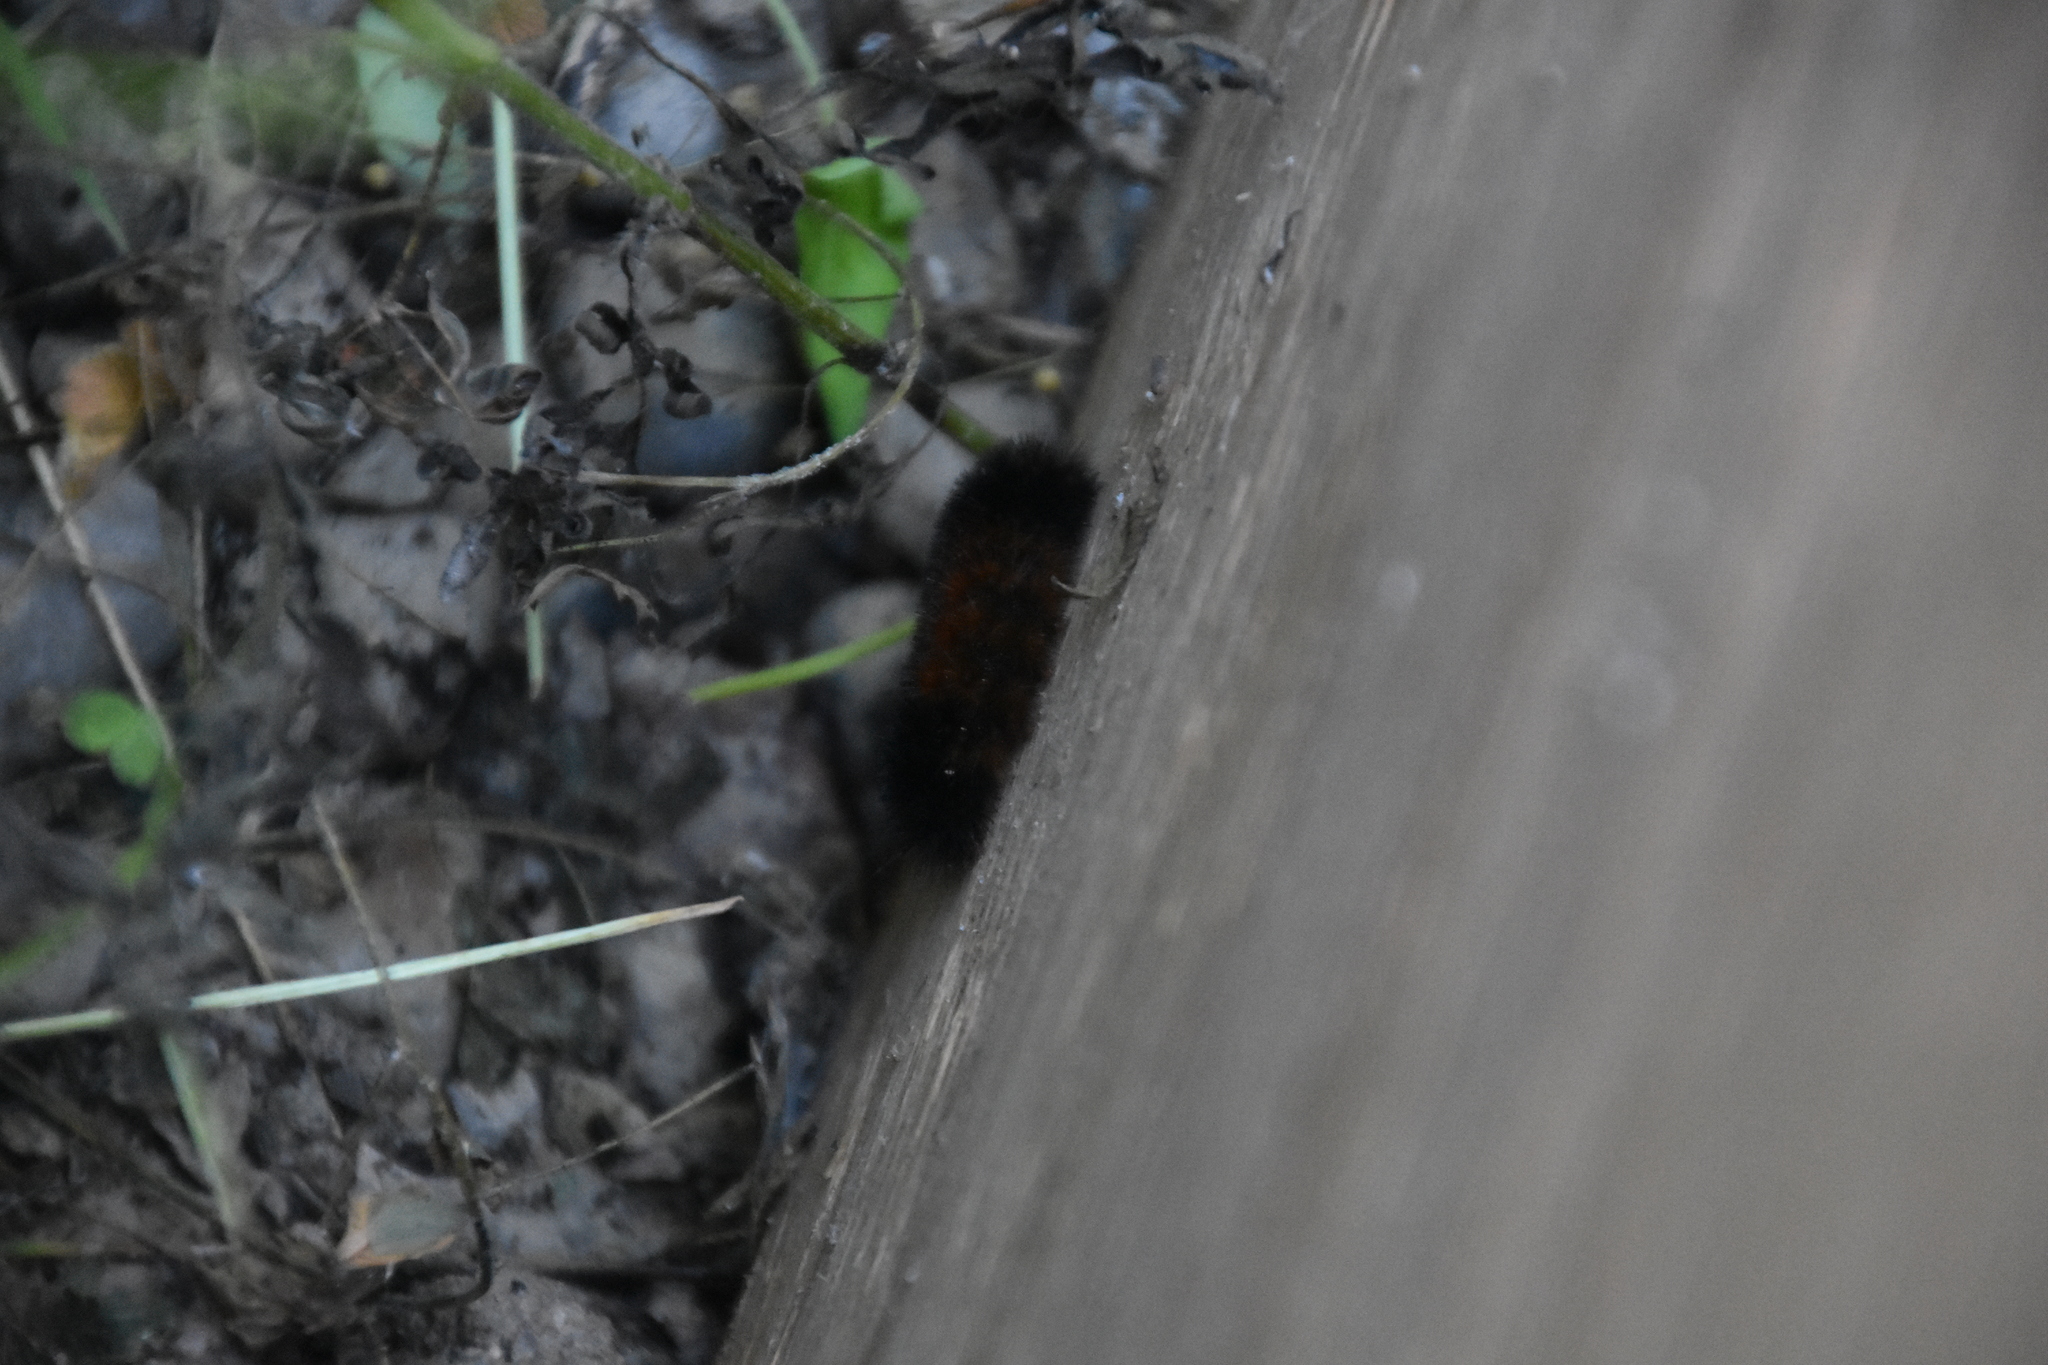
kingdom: Animalia
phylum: Arthropoda
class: Insecta
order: Lepidoptera
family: Erebidae
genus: Pyrrharctia
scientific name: Pyrrharctia isabella
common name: Isabella tiger moth
